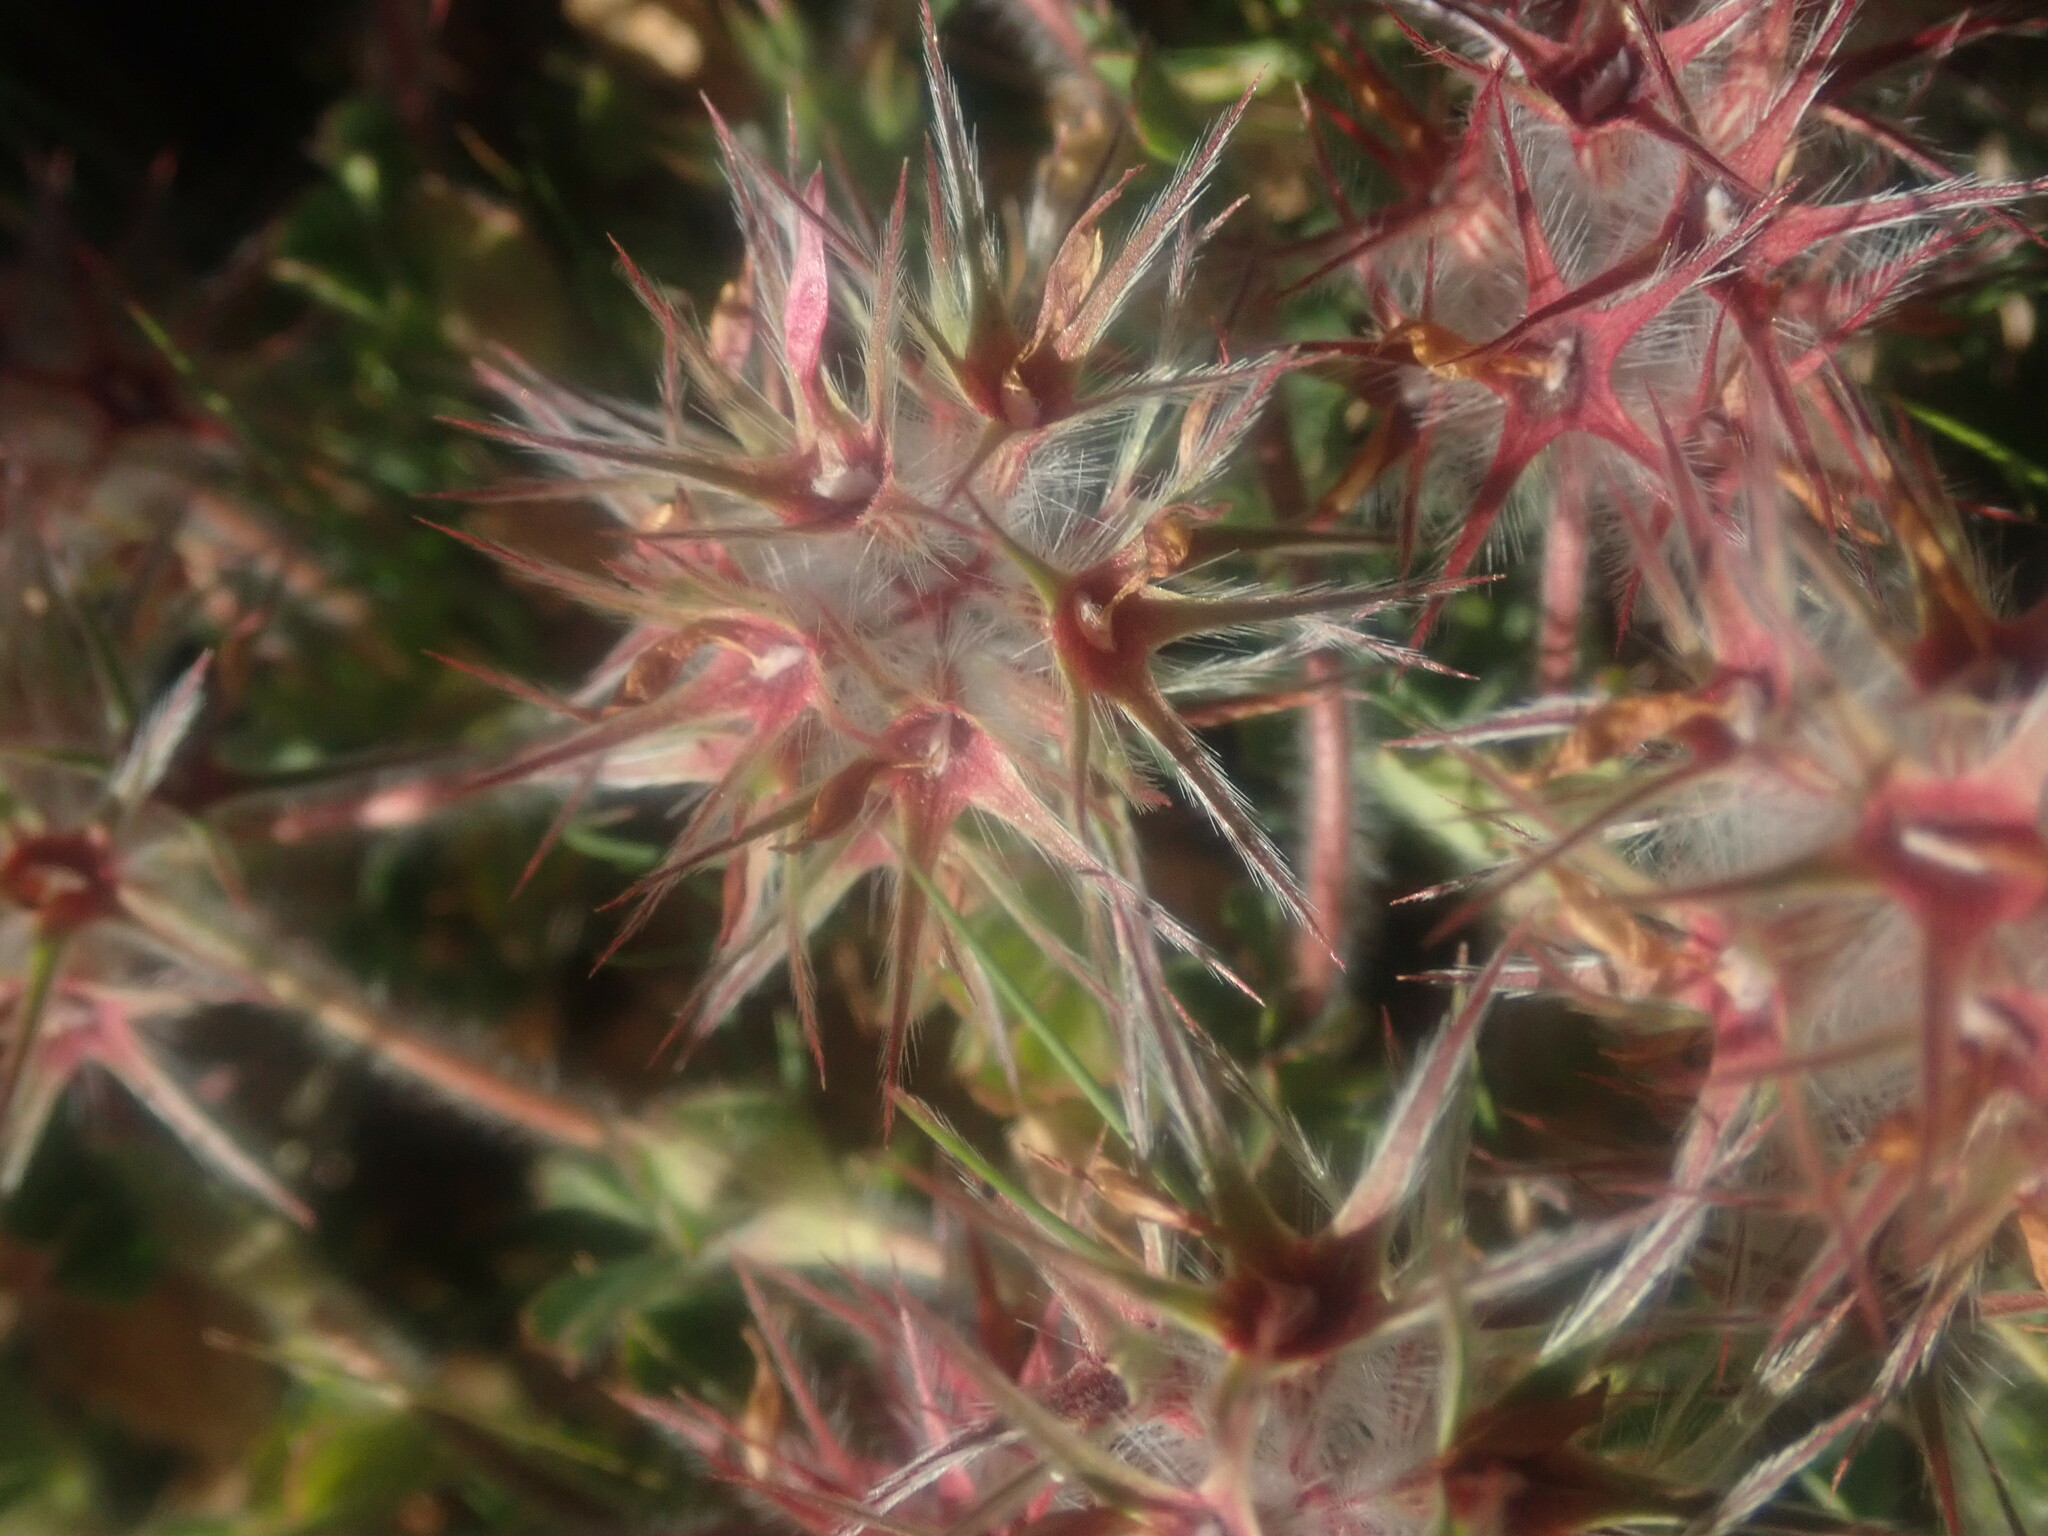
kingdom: Plantae
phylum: Tracheophyta
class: Magnoliopsida
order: Fabales
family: Fabaceae
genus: Trifolium
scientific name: Trifolium stellatum
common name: Starry clover
